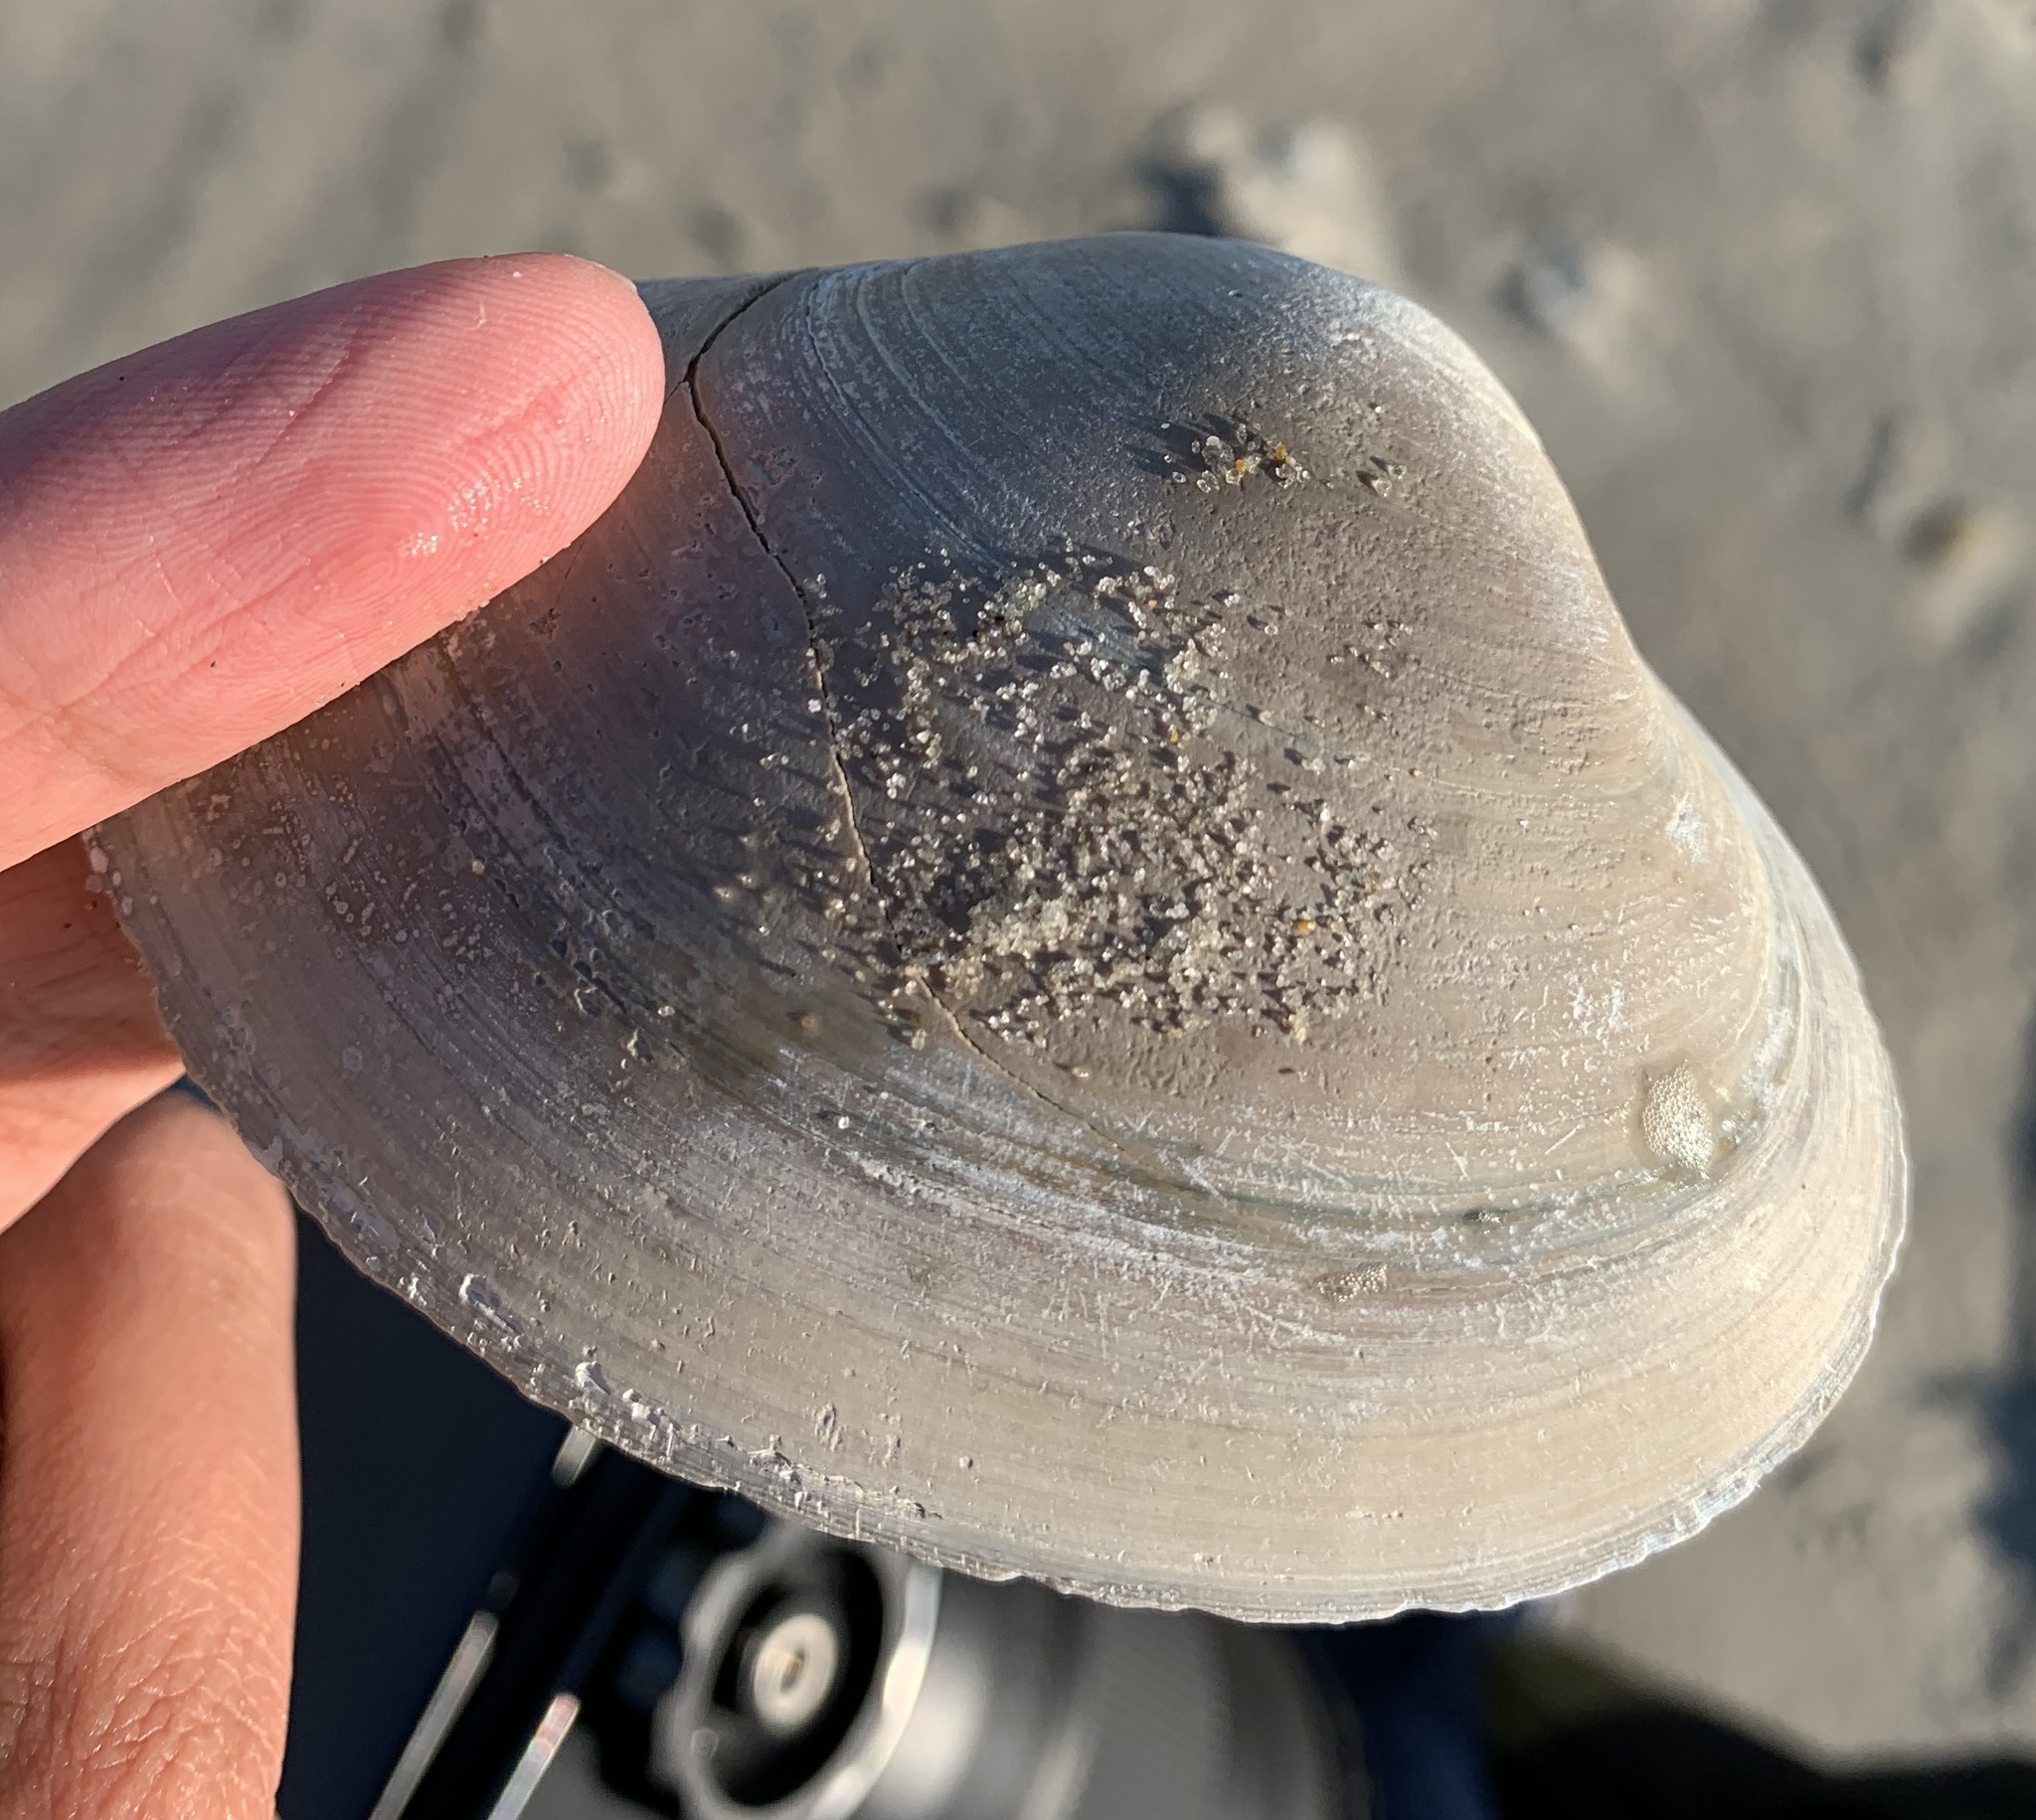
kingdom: Animalia
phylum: Mollusca
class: Bivalvia
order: Venerida
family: Mactridae
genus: Spisula
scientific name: Spisula solidissima
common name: Atlantic surf clam
